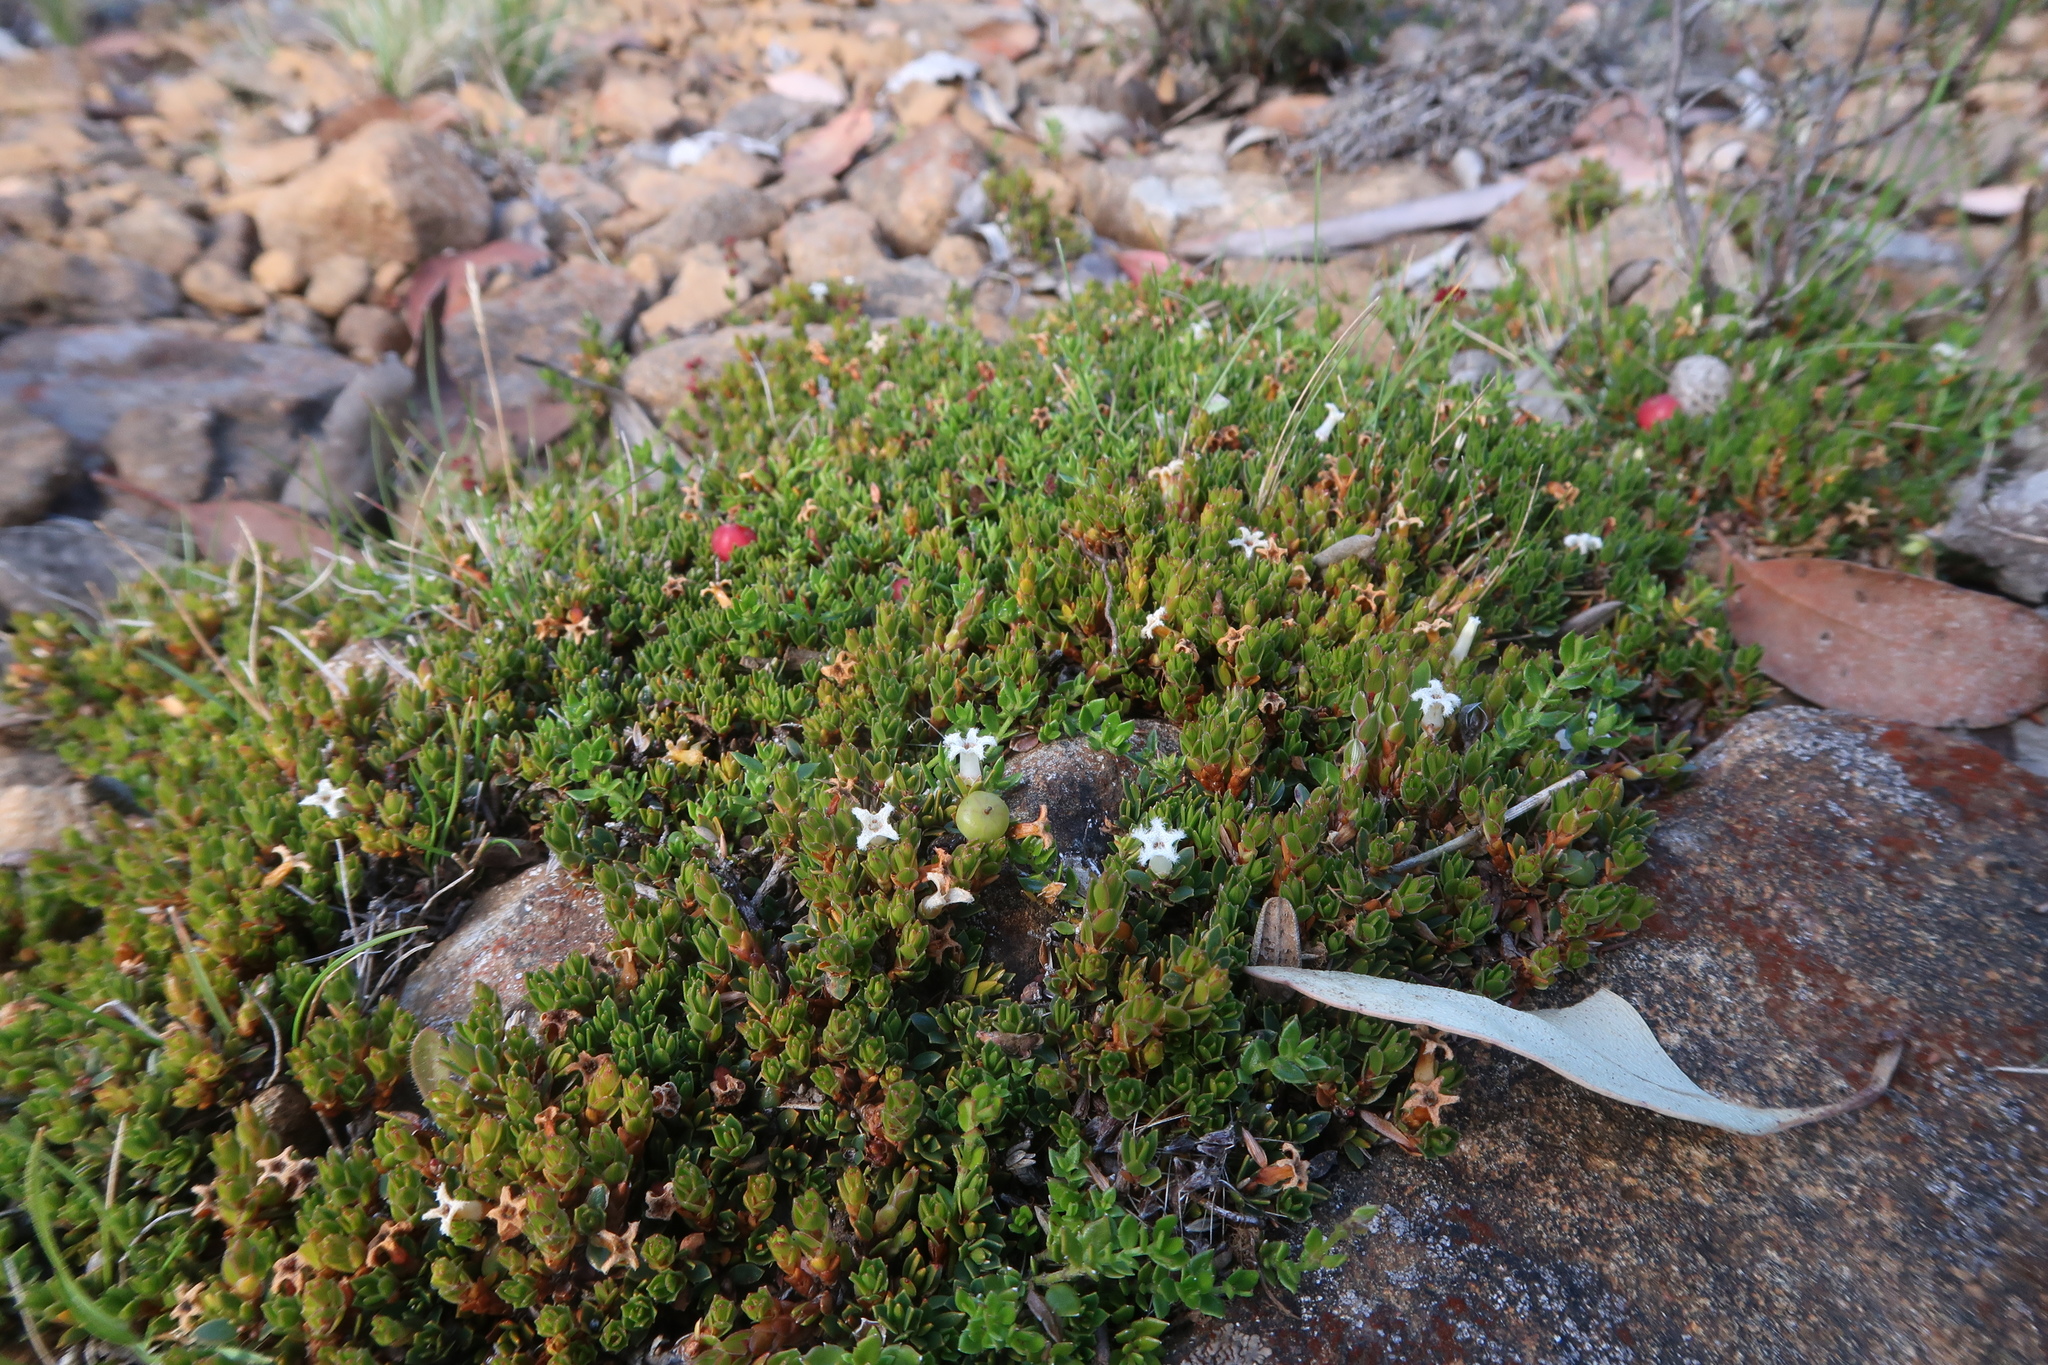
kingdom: Plantae
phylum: Tracheophyta
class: Magnoliopsida
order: Ericales
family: Ericaceae
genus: Pentachondra
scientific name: Pentachondra pumila
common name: Carpet-heath
